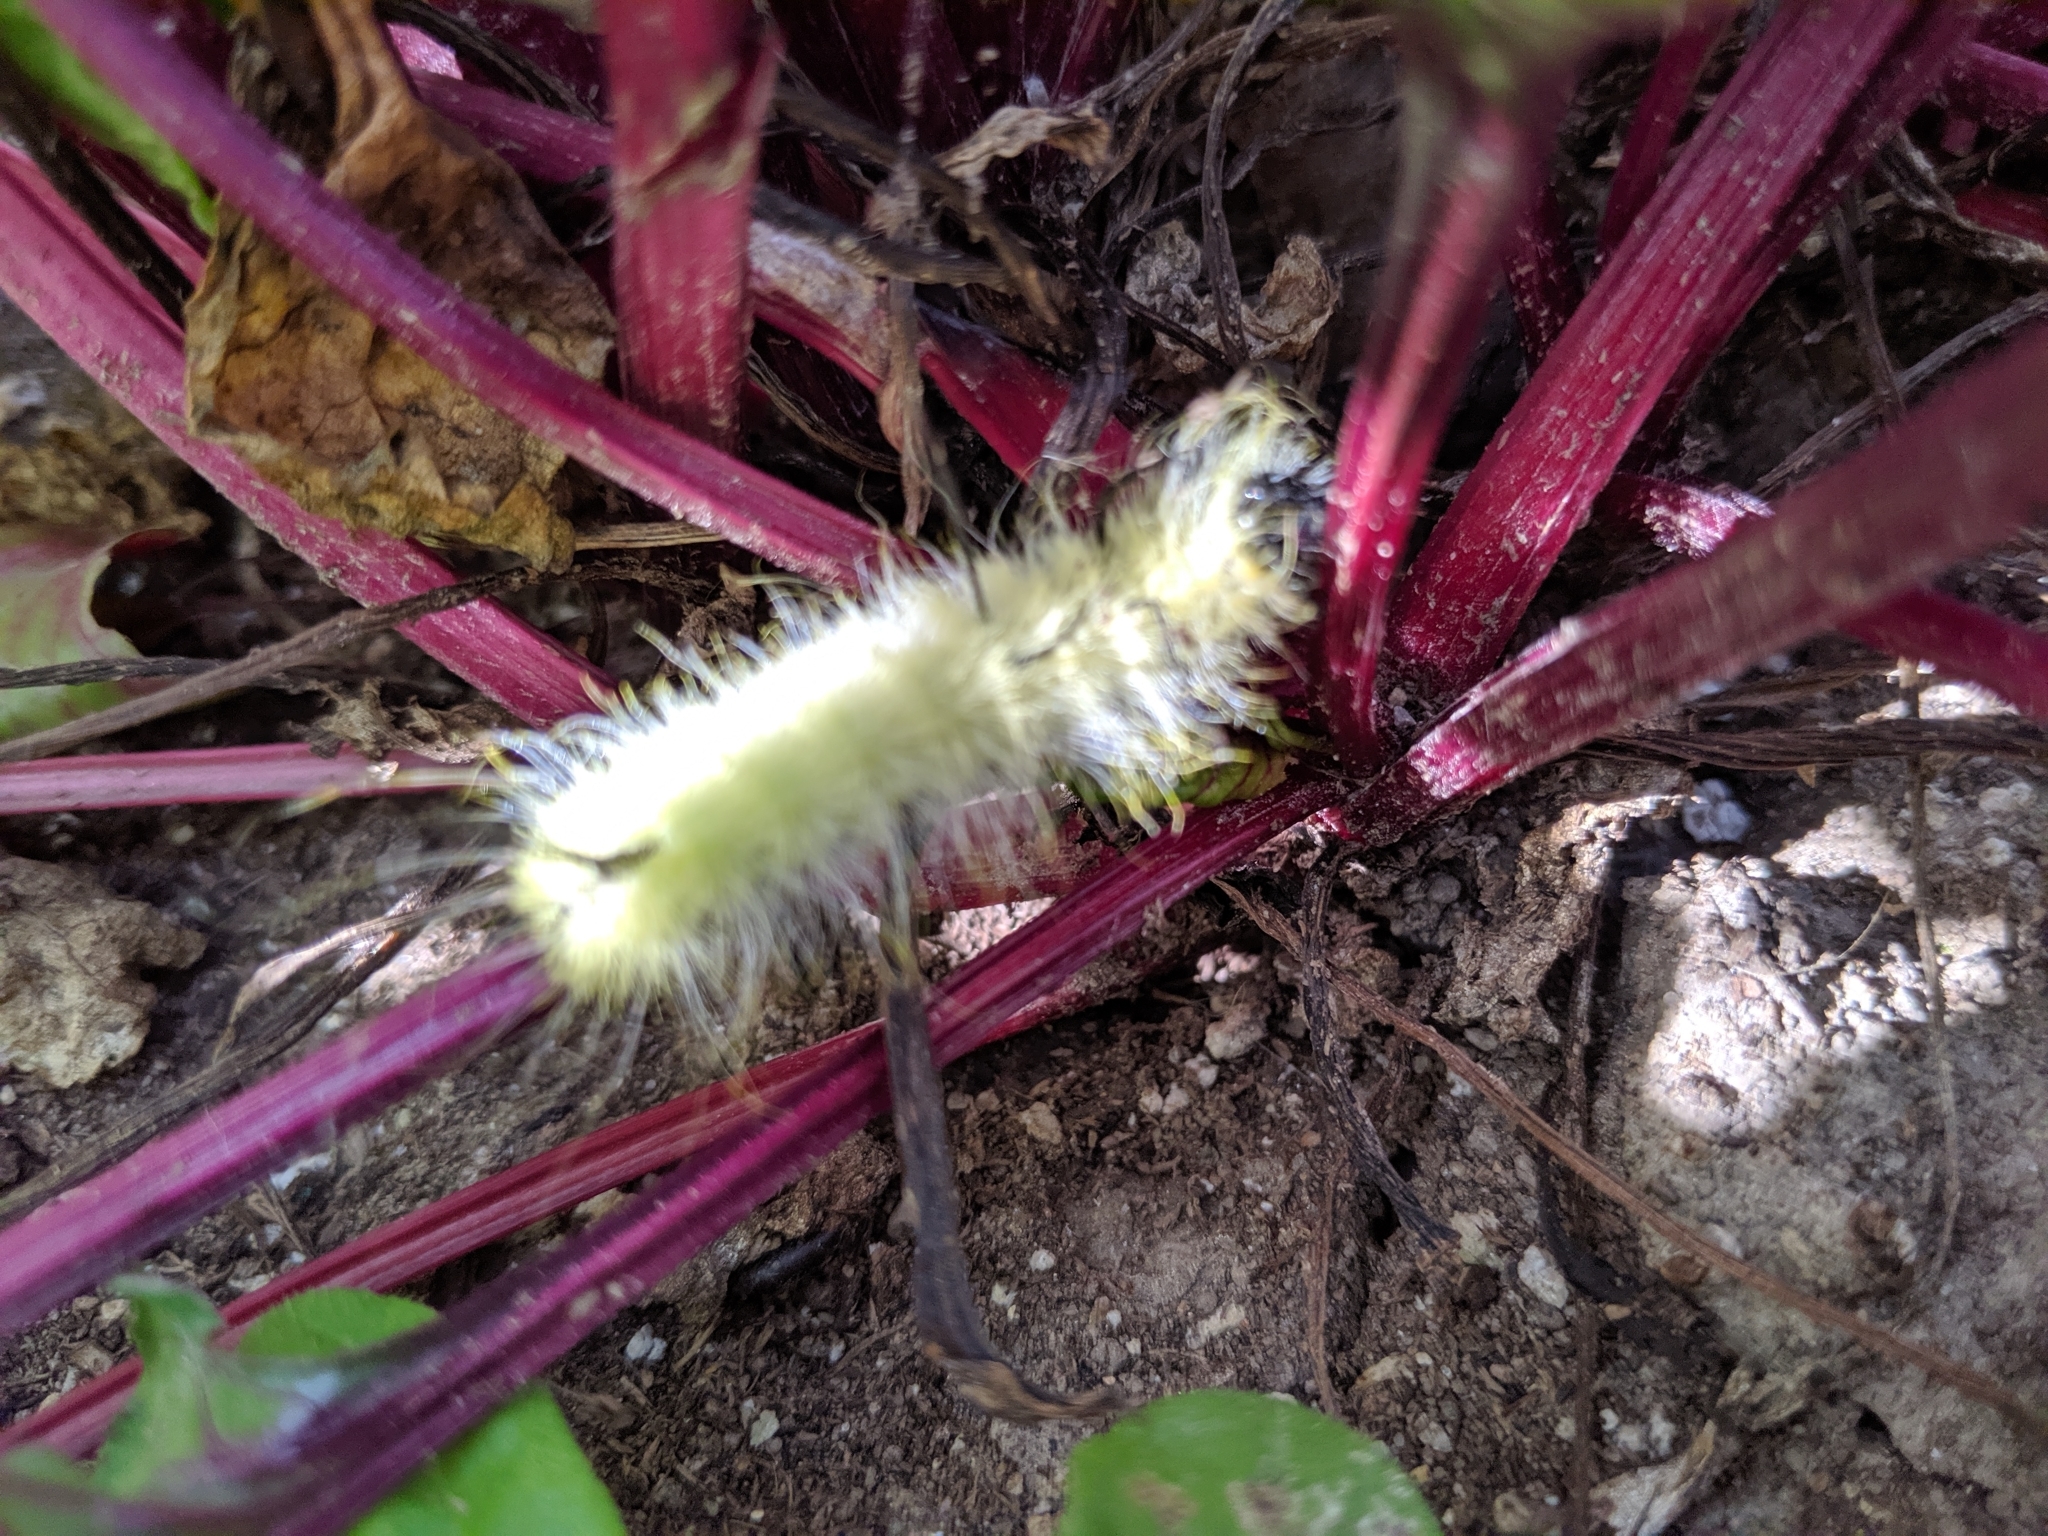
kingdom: Animalia
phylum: Arthropoda
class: Insecta
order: Lepidoptera
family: Noctuidae
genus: Acronicta
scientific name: Acronicta americana
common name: American dagger
